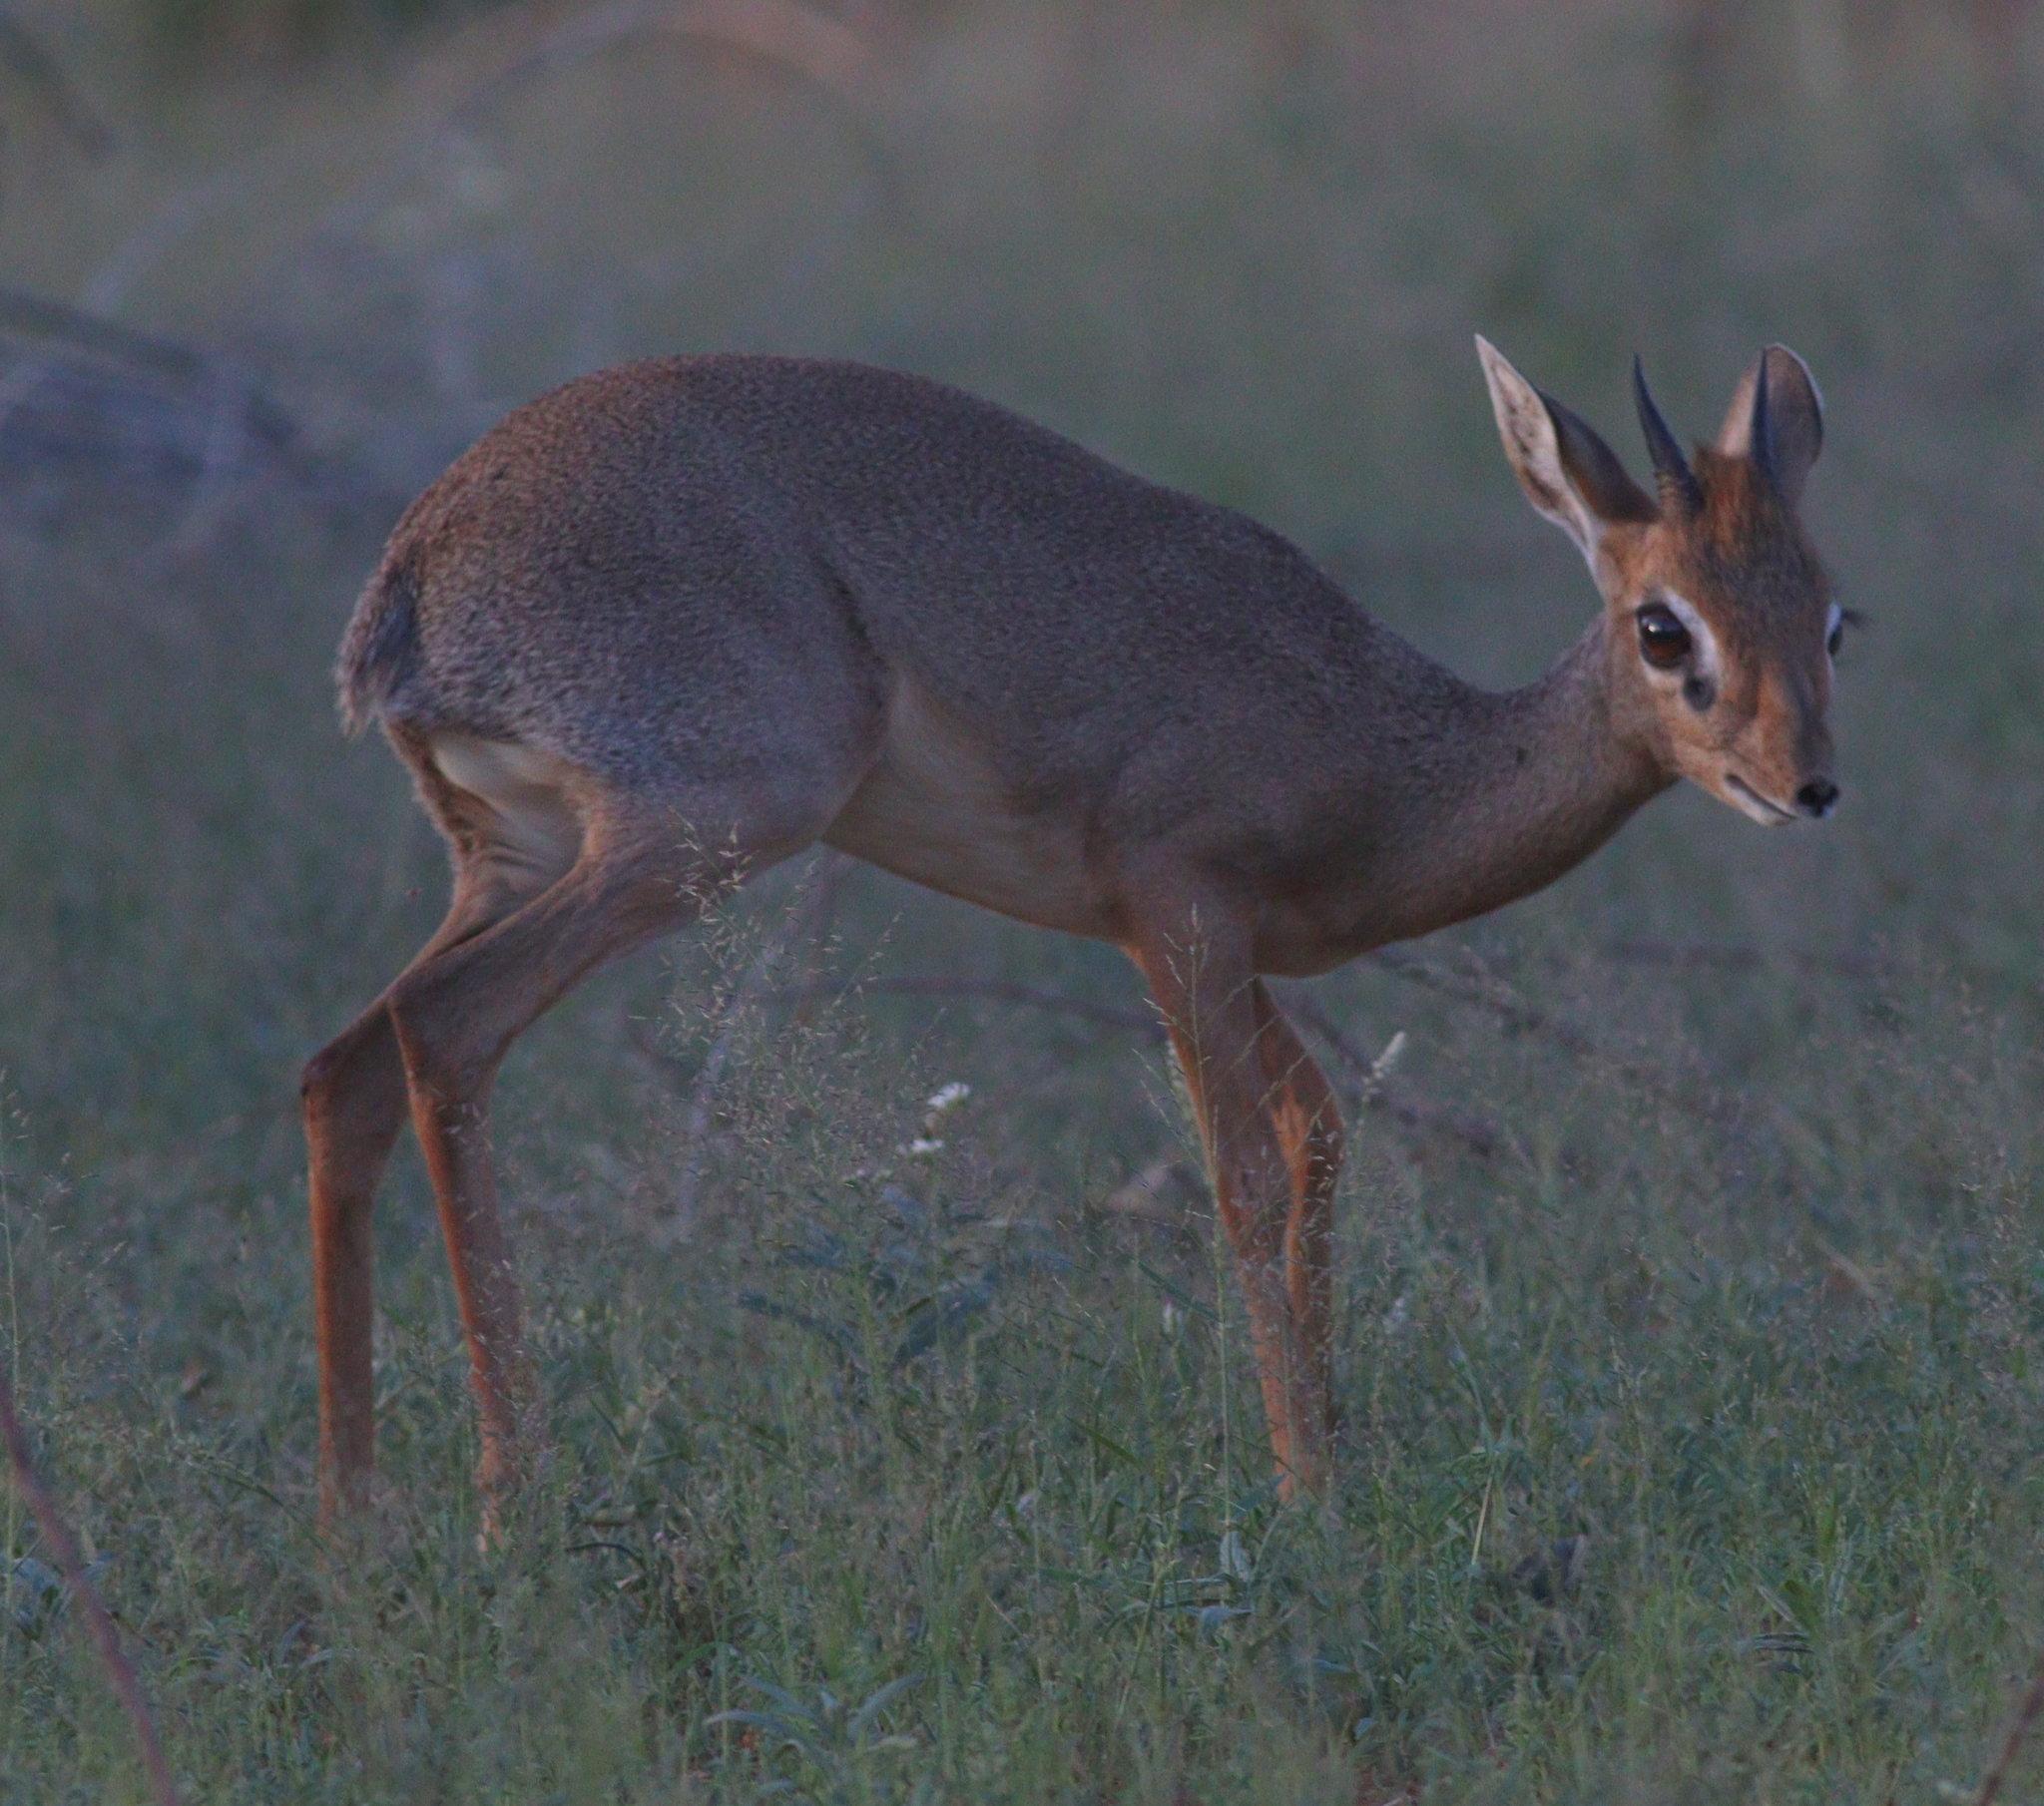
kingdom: Animalia
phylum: Chordata
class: Mammalia
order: Artiodactyla
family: Bovidae
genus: Madoqua
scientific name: Madoqua kirkii
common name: Kirk's dik-dik
